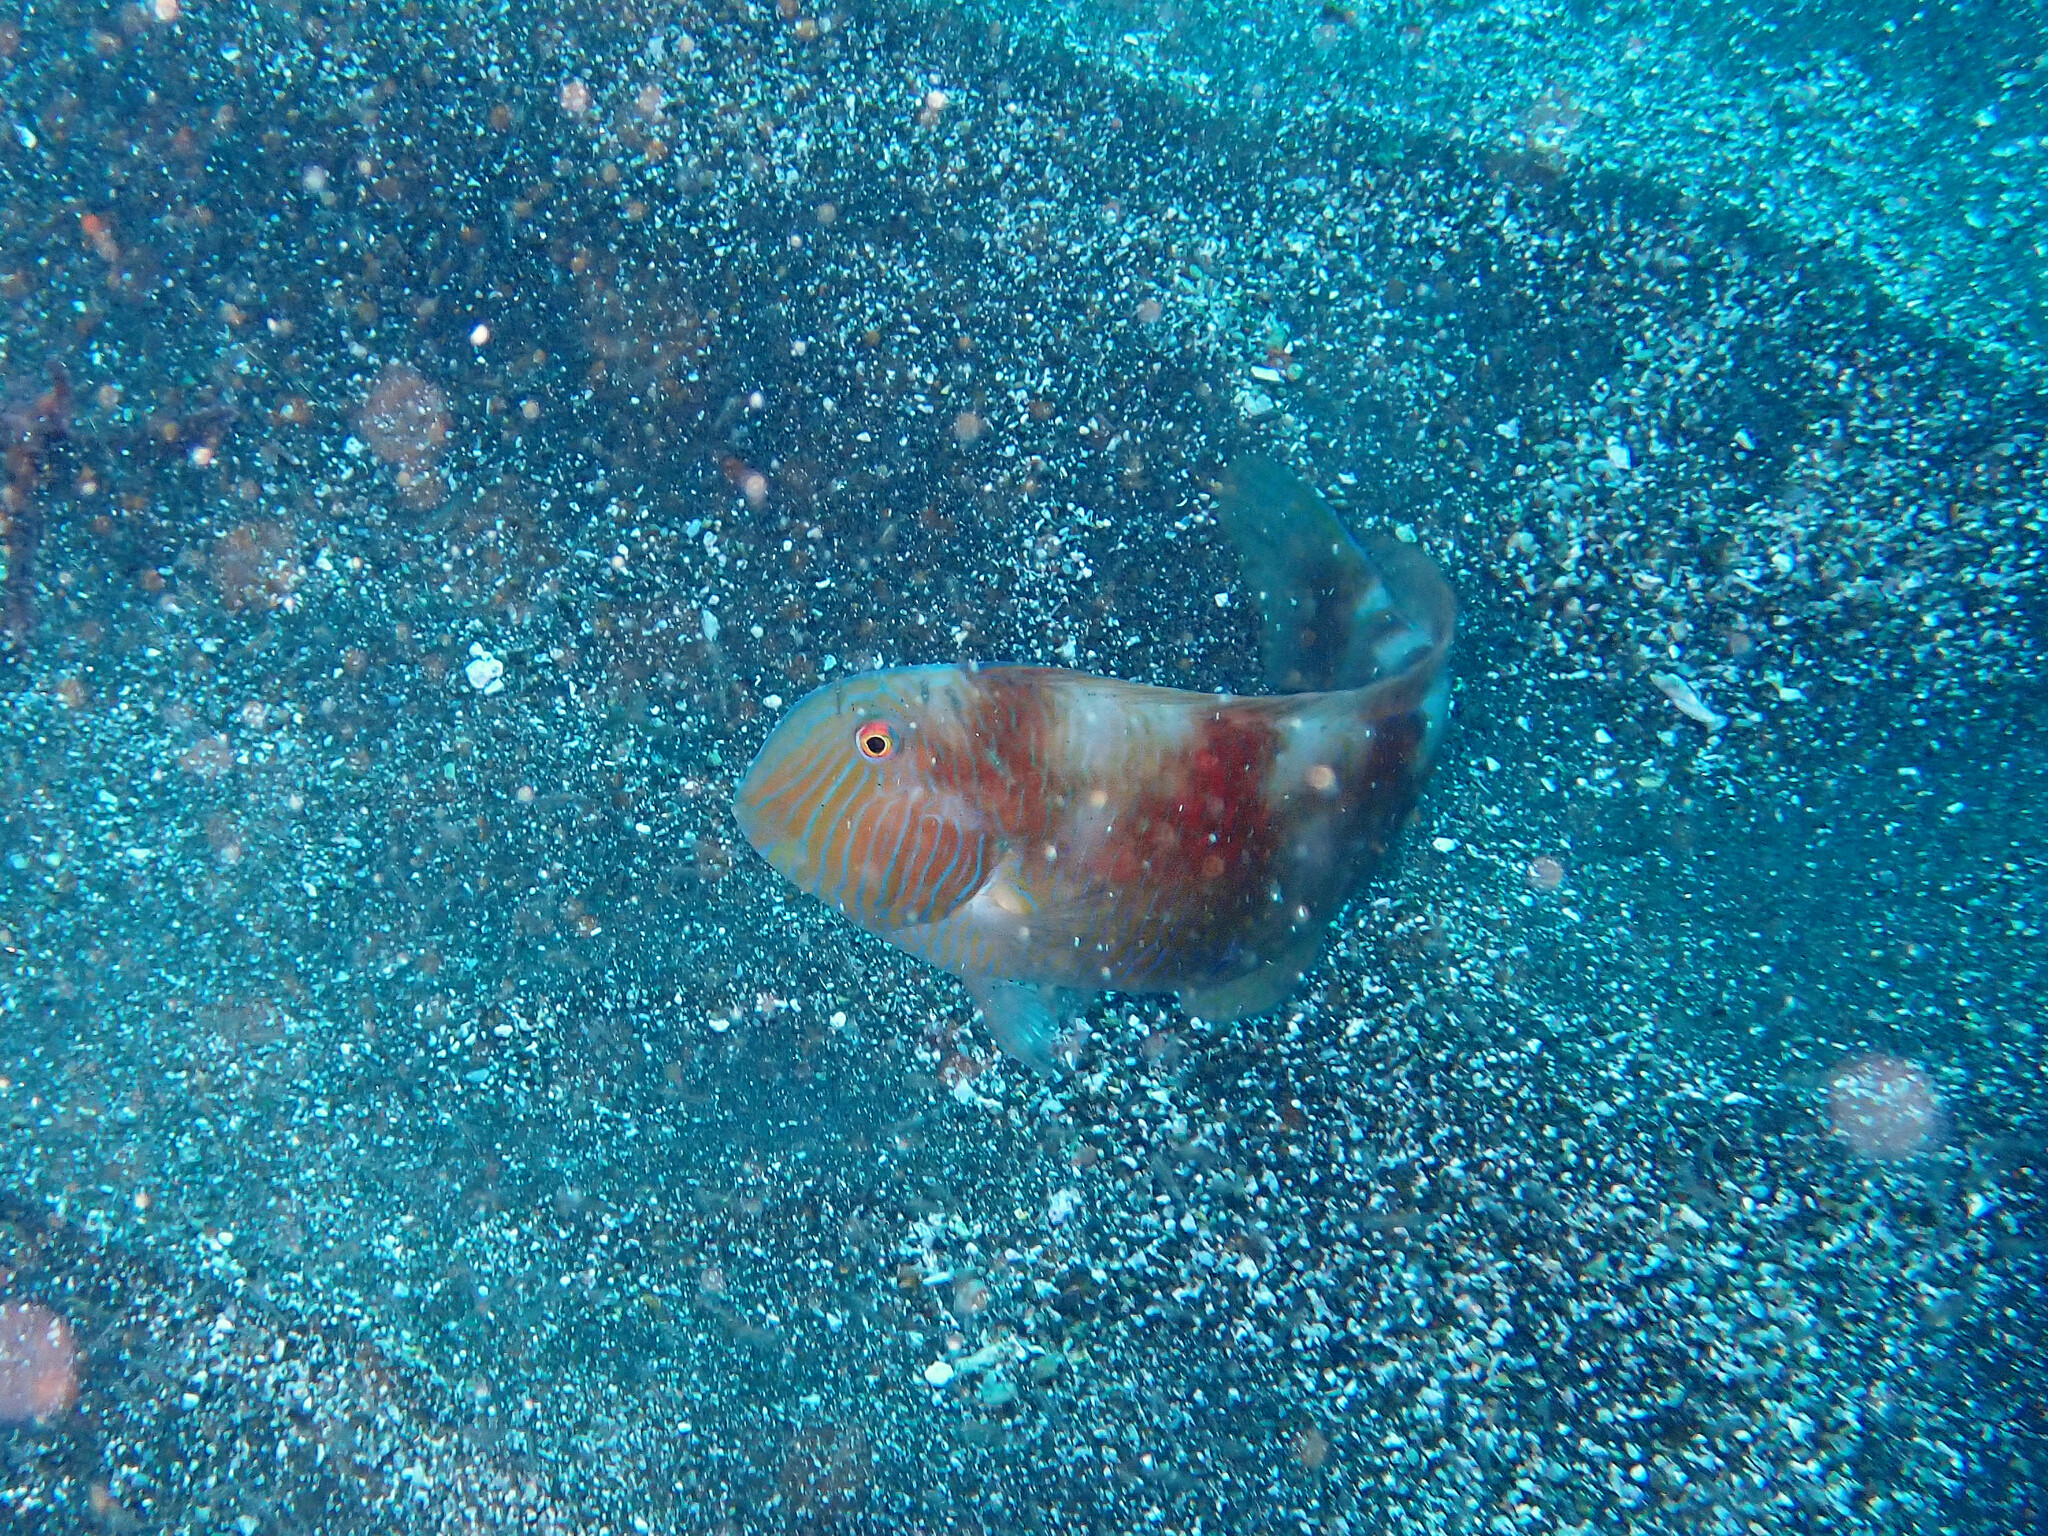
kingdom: Animalia
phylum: Chordata
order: Perciformes
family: Labridae
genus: Xyrichtys
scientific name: Xyrichtys novacula
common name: Pearly razorfish
